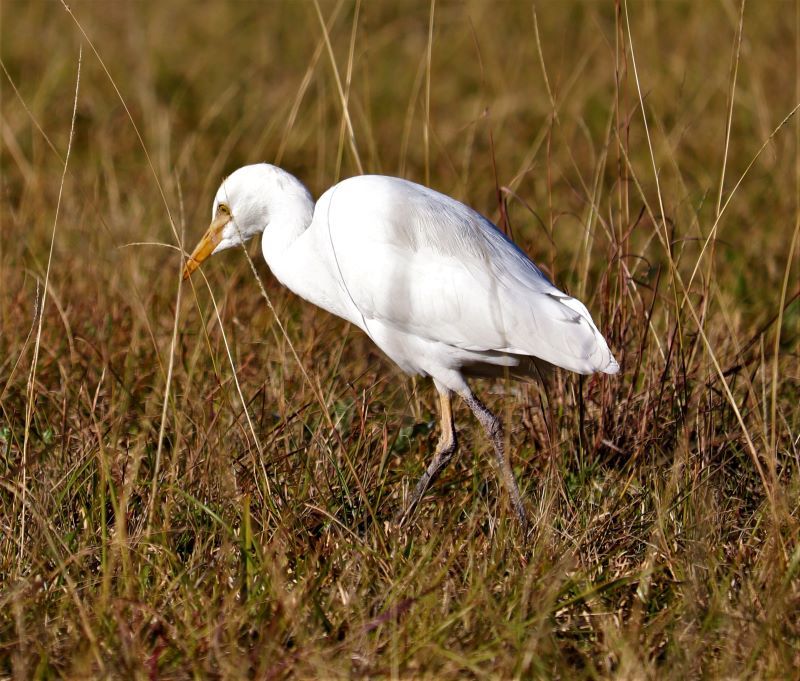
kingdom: Animalia
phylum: Chordata
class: Aves
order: Pelecaniformes
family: Ardeidae
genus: Bubulcus
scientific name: Bubulcus ibis
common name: Cattle egret
